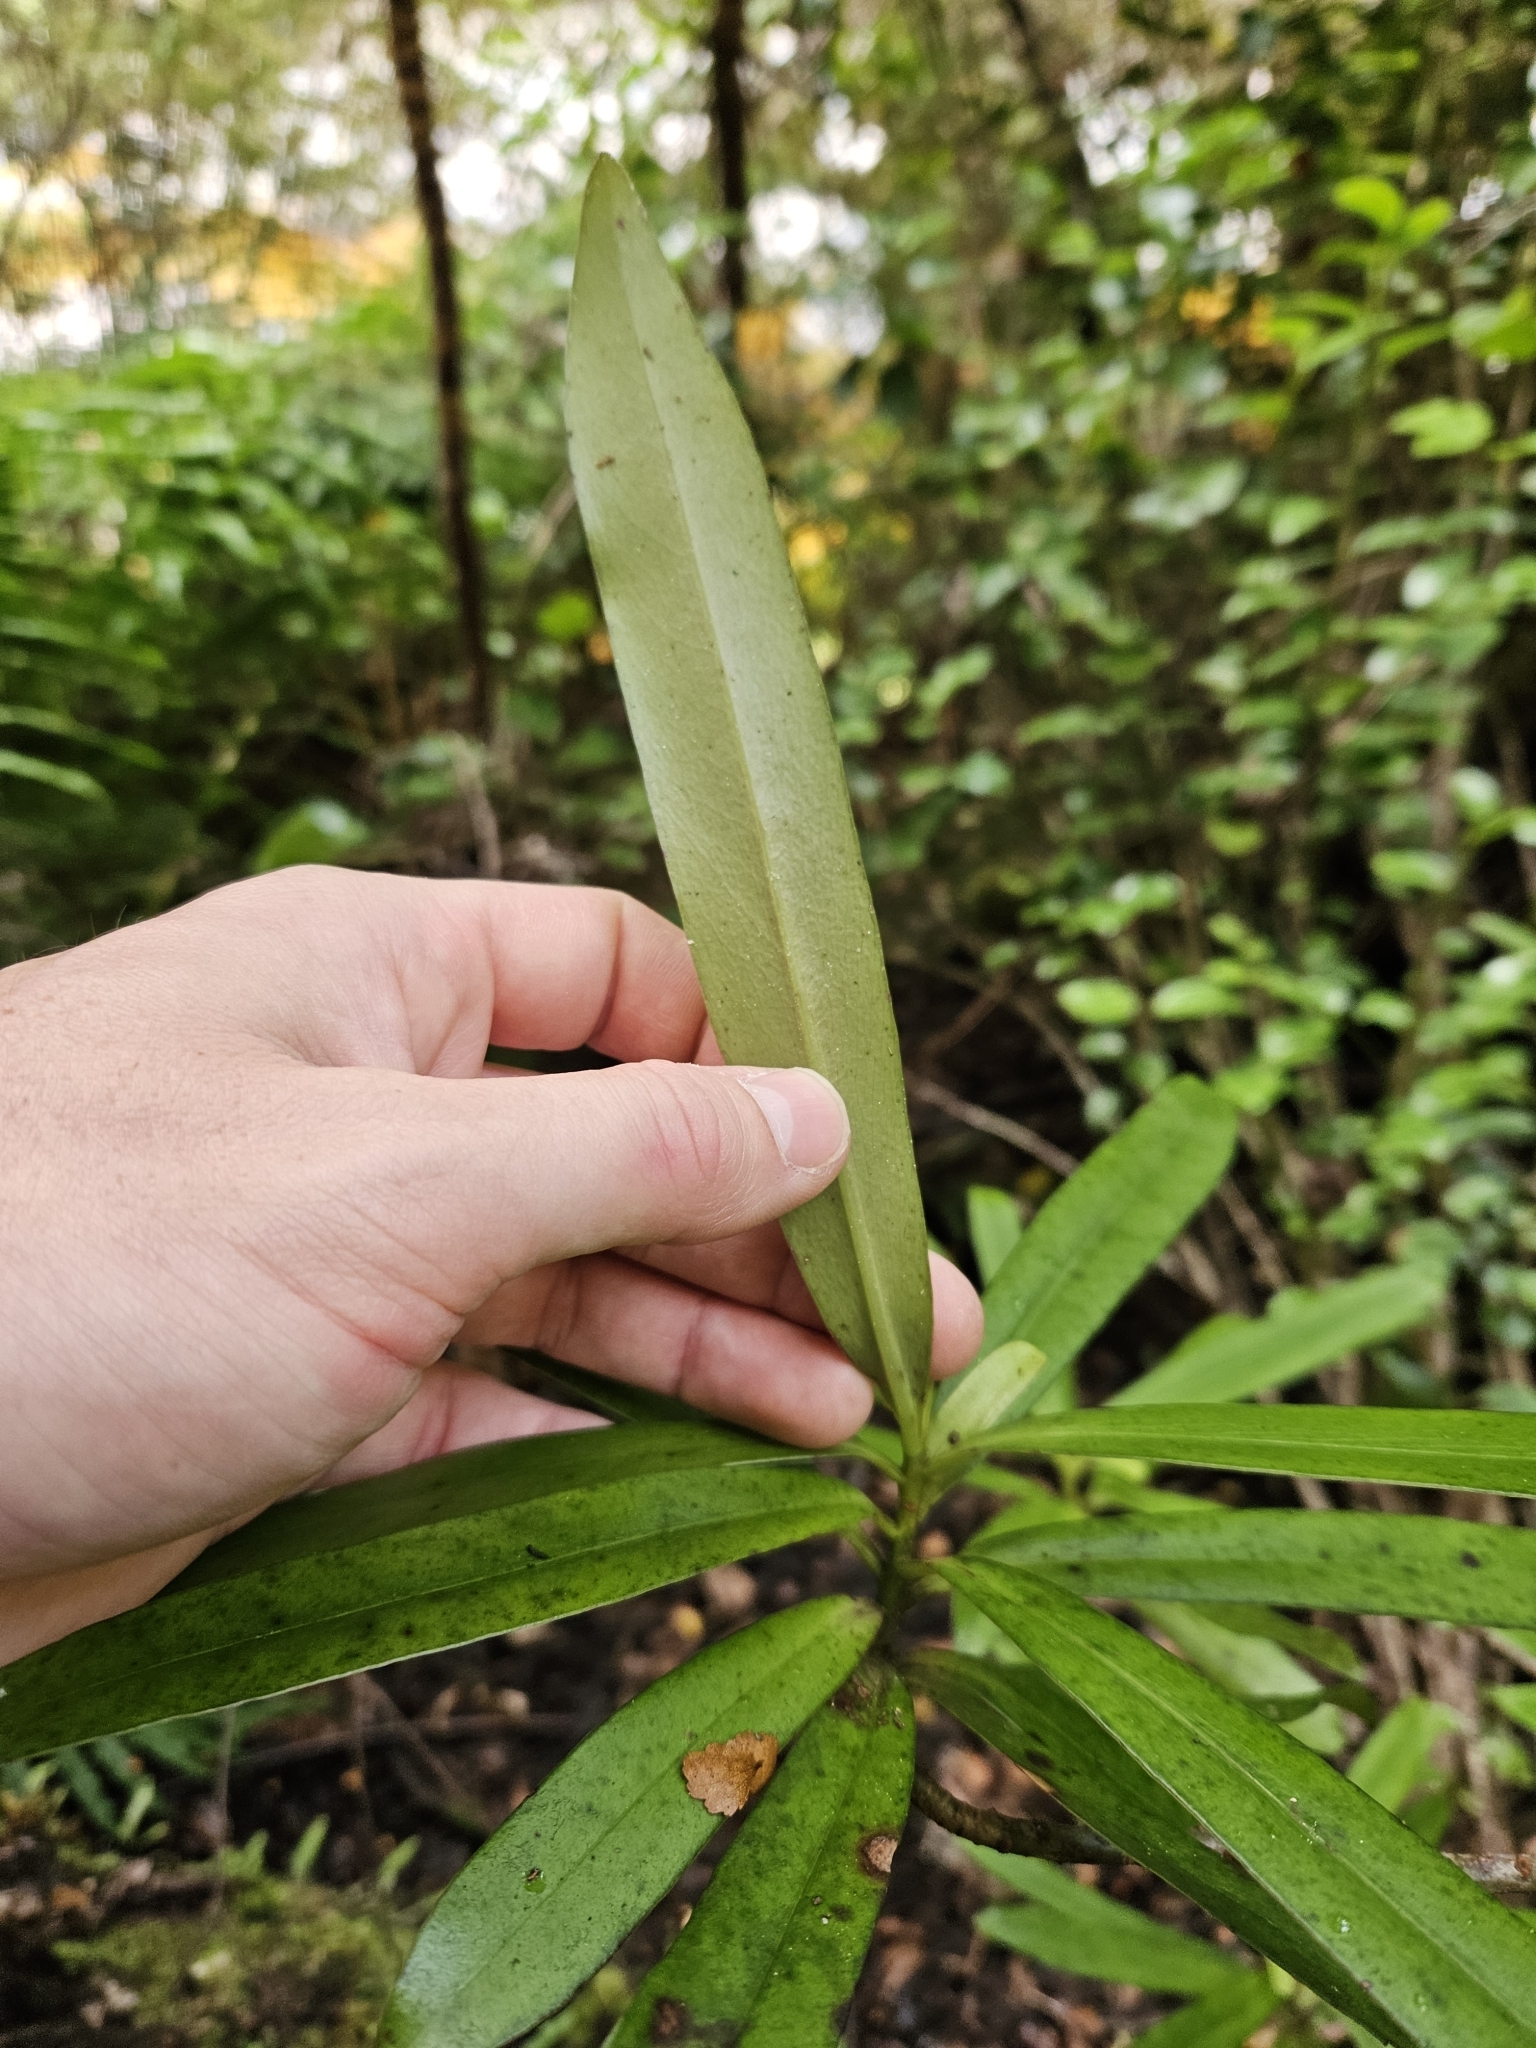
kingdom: Plantae
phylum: Tracheophyta
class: Magnoliopsida
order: Ericales
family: Primulaceae
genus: Myrsine
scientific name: Myrsine salicina
